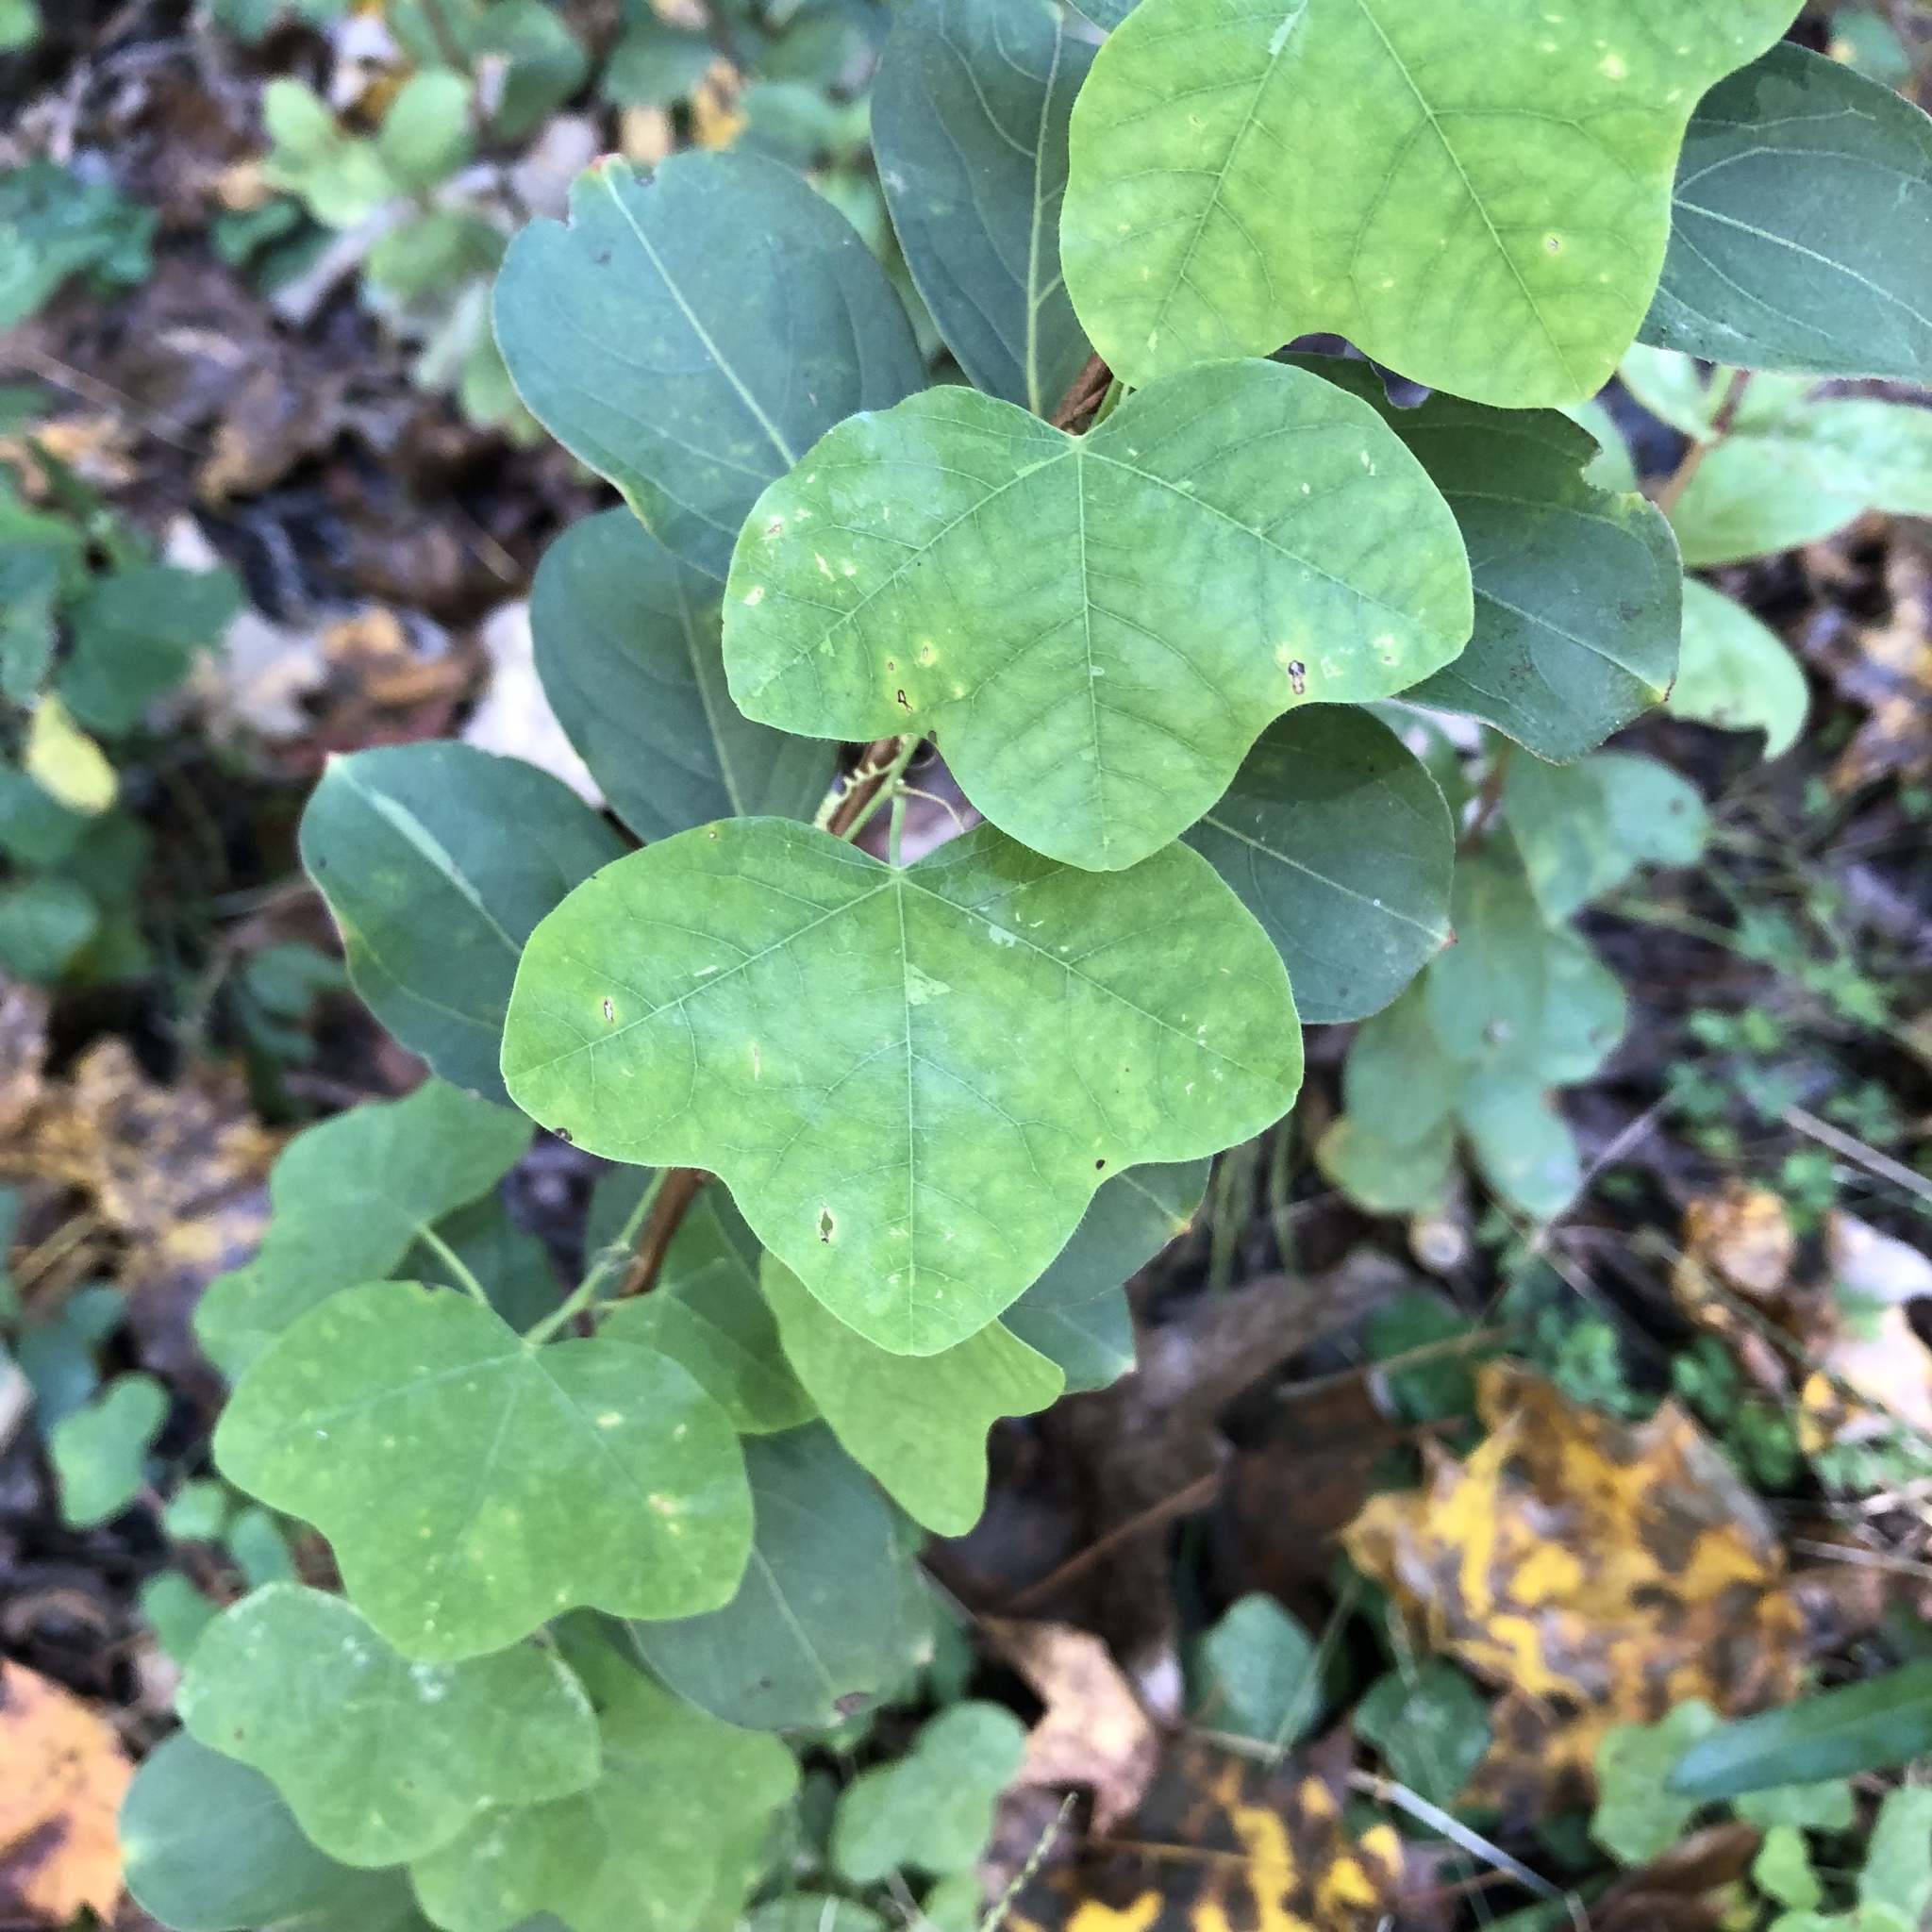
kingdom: Plantae
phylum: Tracheophyta
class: Magnoliopsida
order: Malpighiales
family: Passifloraceae
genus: Passiflora
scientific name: Passiflora lutea
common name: Yellow passionflower
